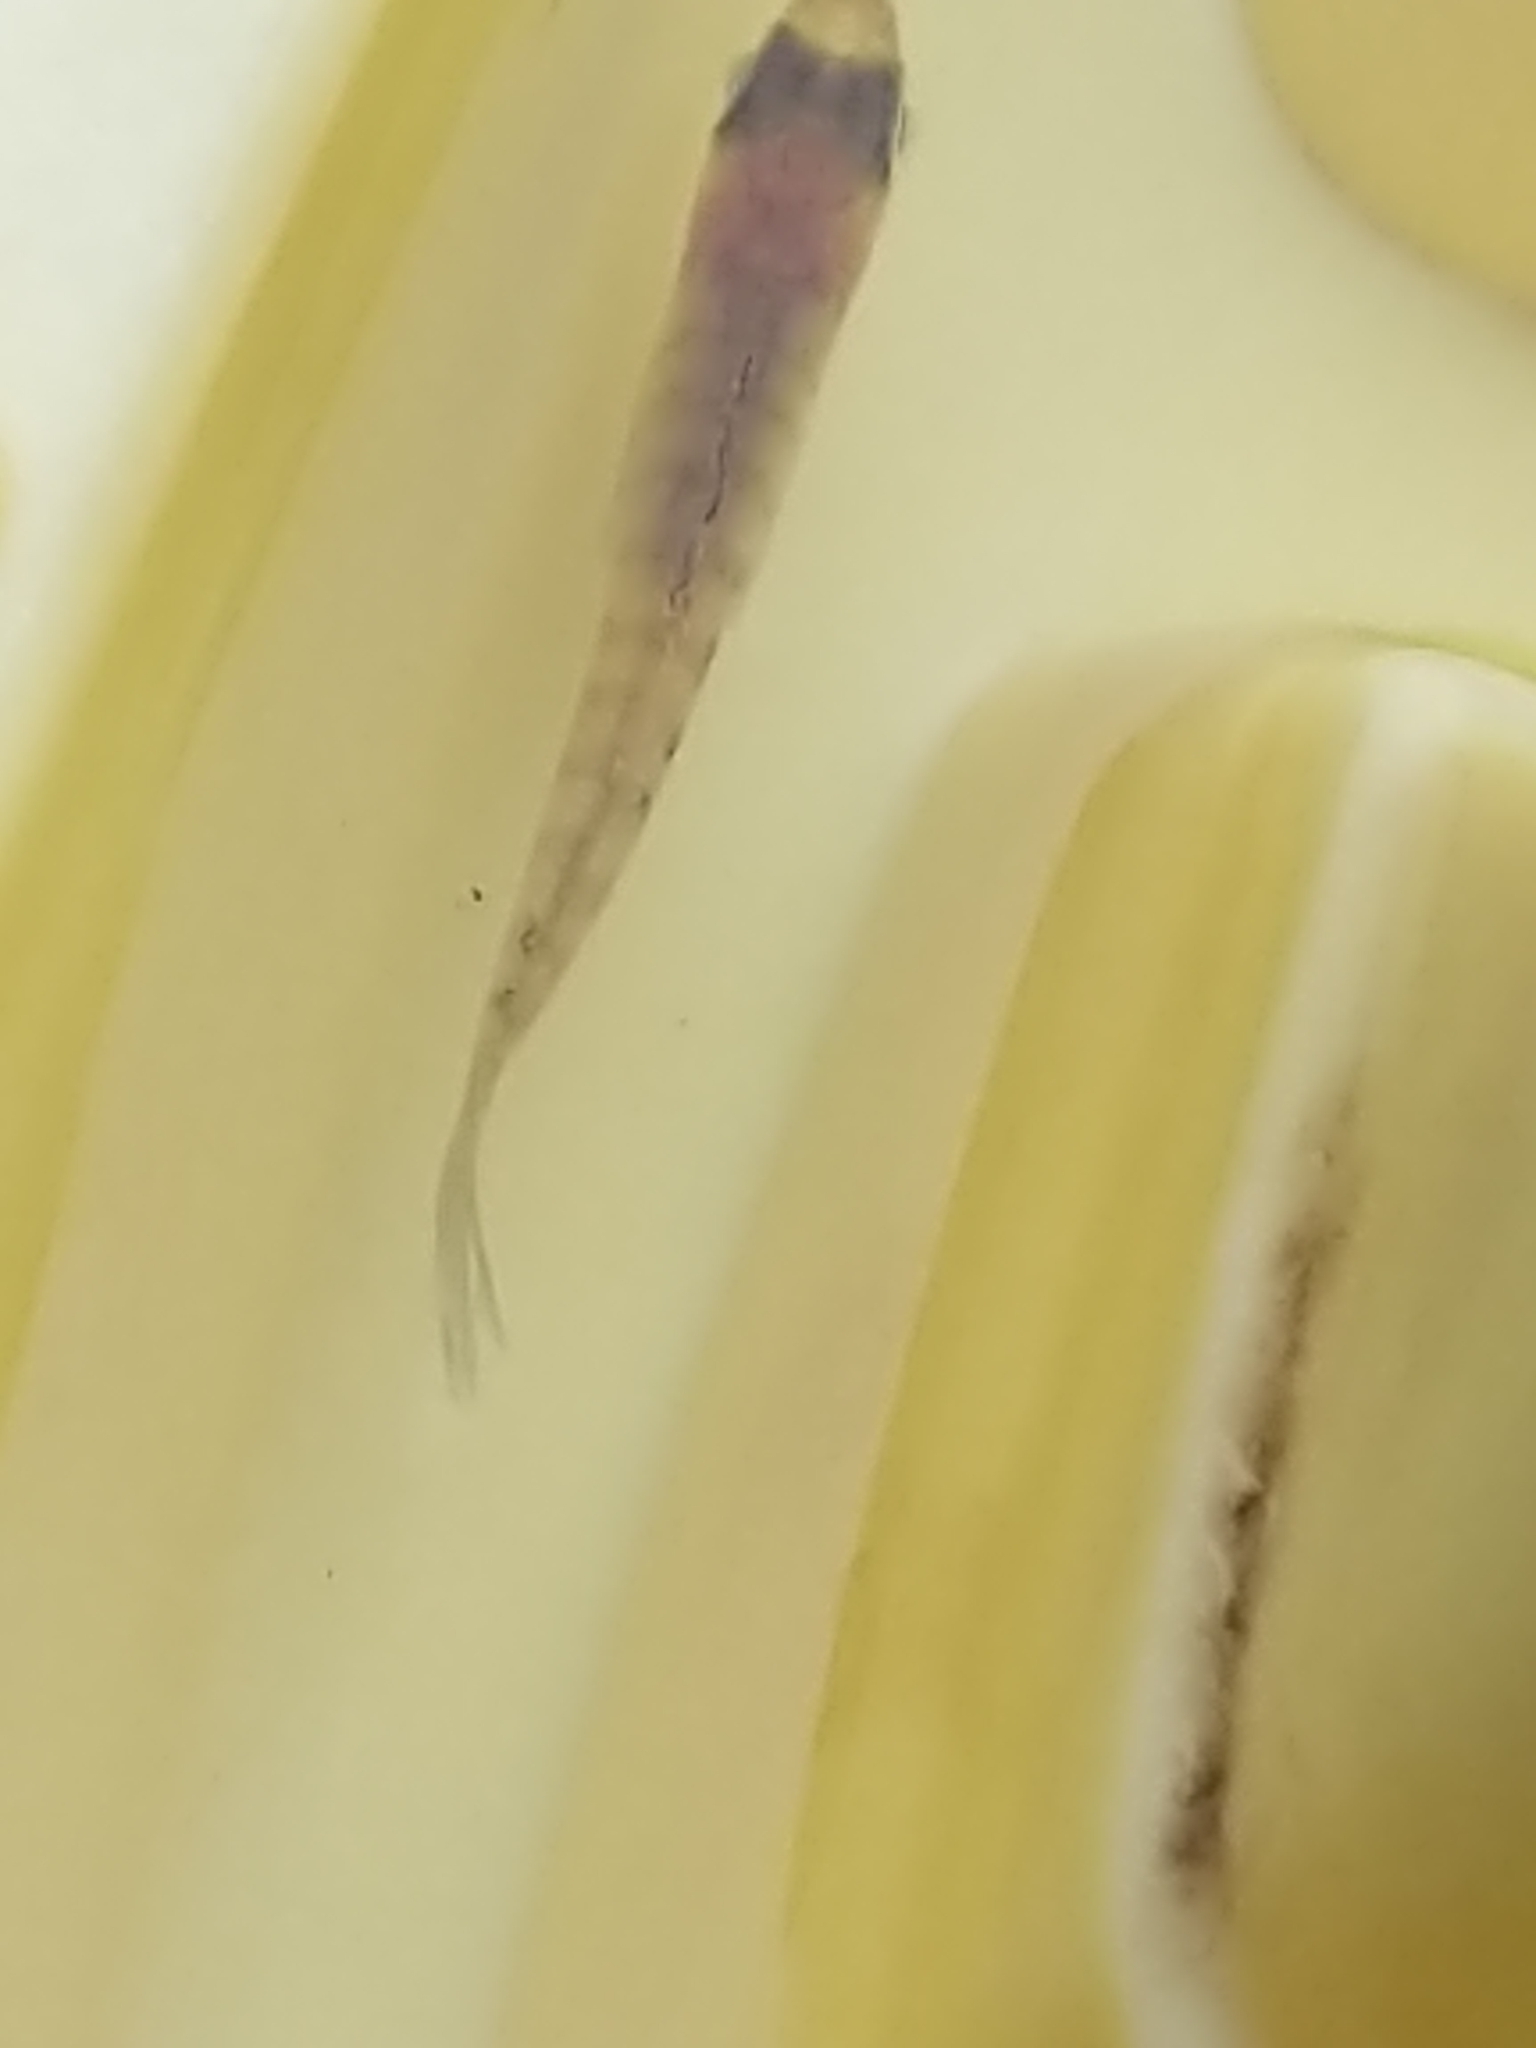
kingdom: Animalia
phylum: Chordata
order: Perciformes
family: Centrarchidae
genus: Lepomis
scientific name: Lepomis
